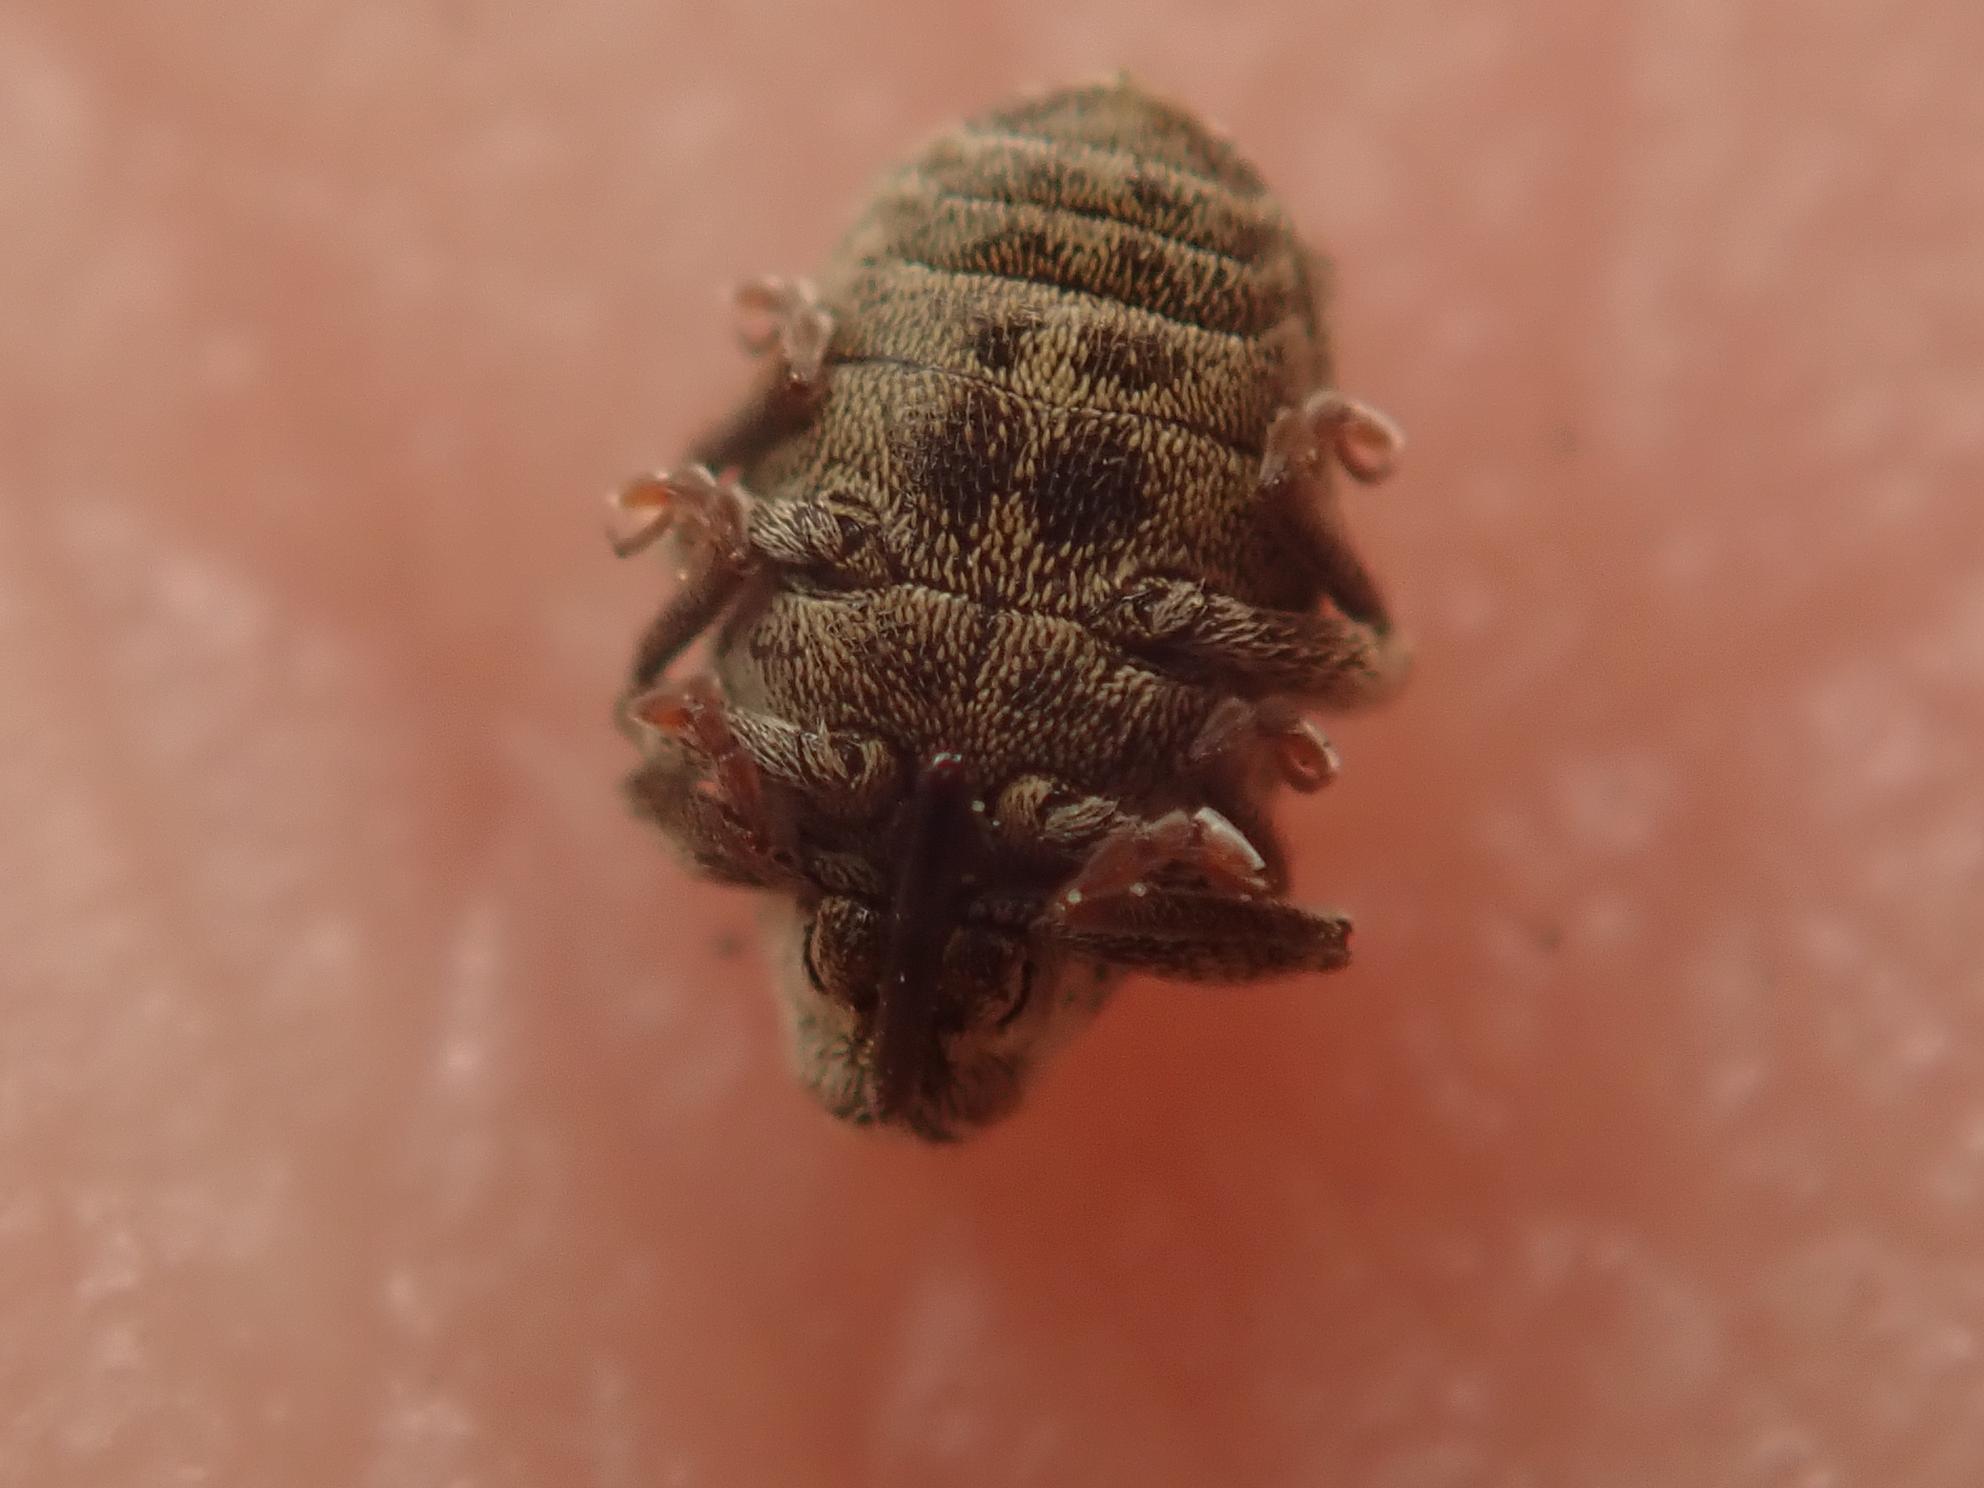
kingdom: Animalia
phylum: Arthropoda
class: Insecta
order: Coleoptera
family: Curculionidae
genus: Ceutorhynchus
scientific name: Ceutorhynchus pallidactylus
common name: Cabbage stem weavil
